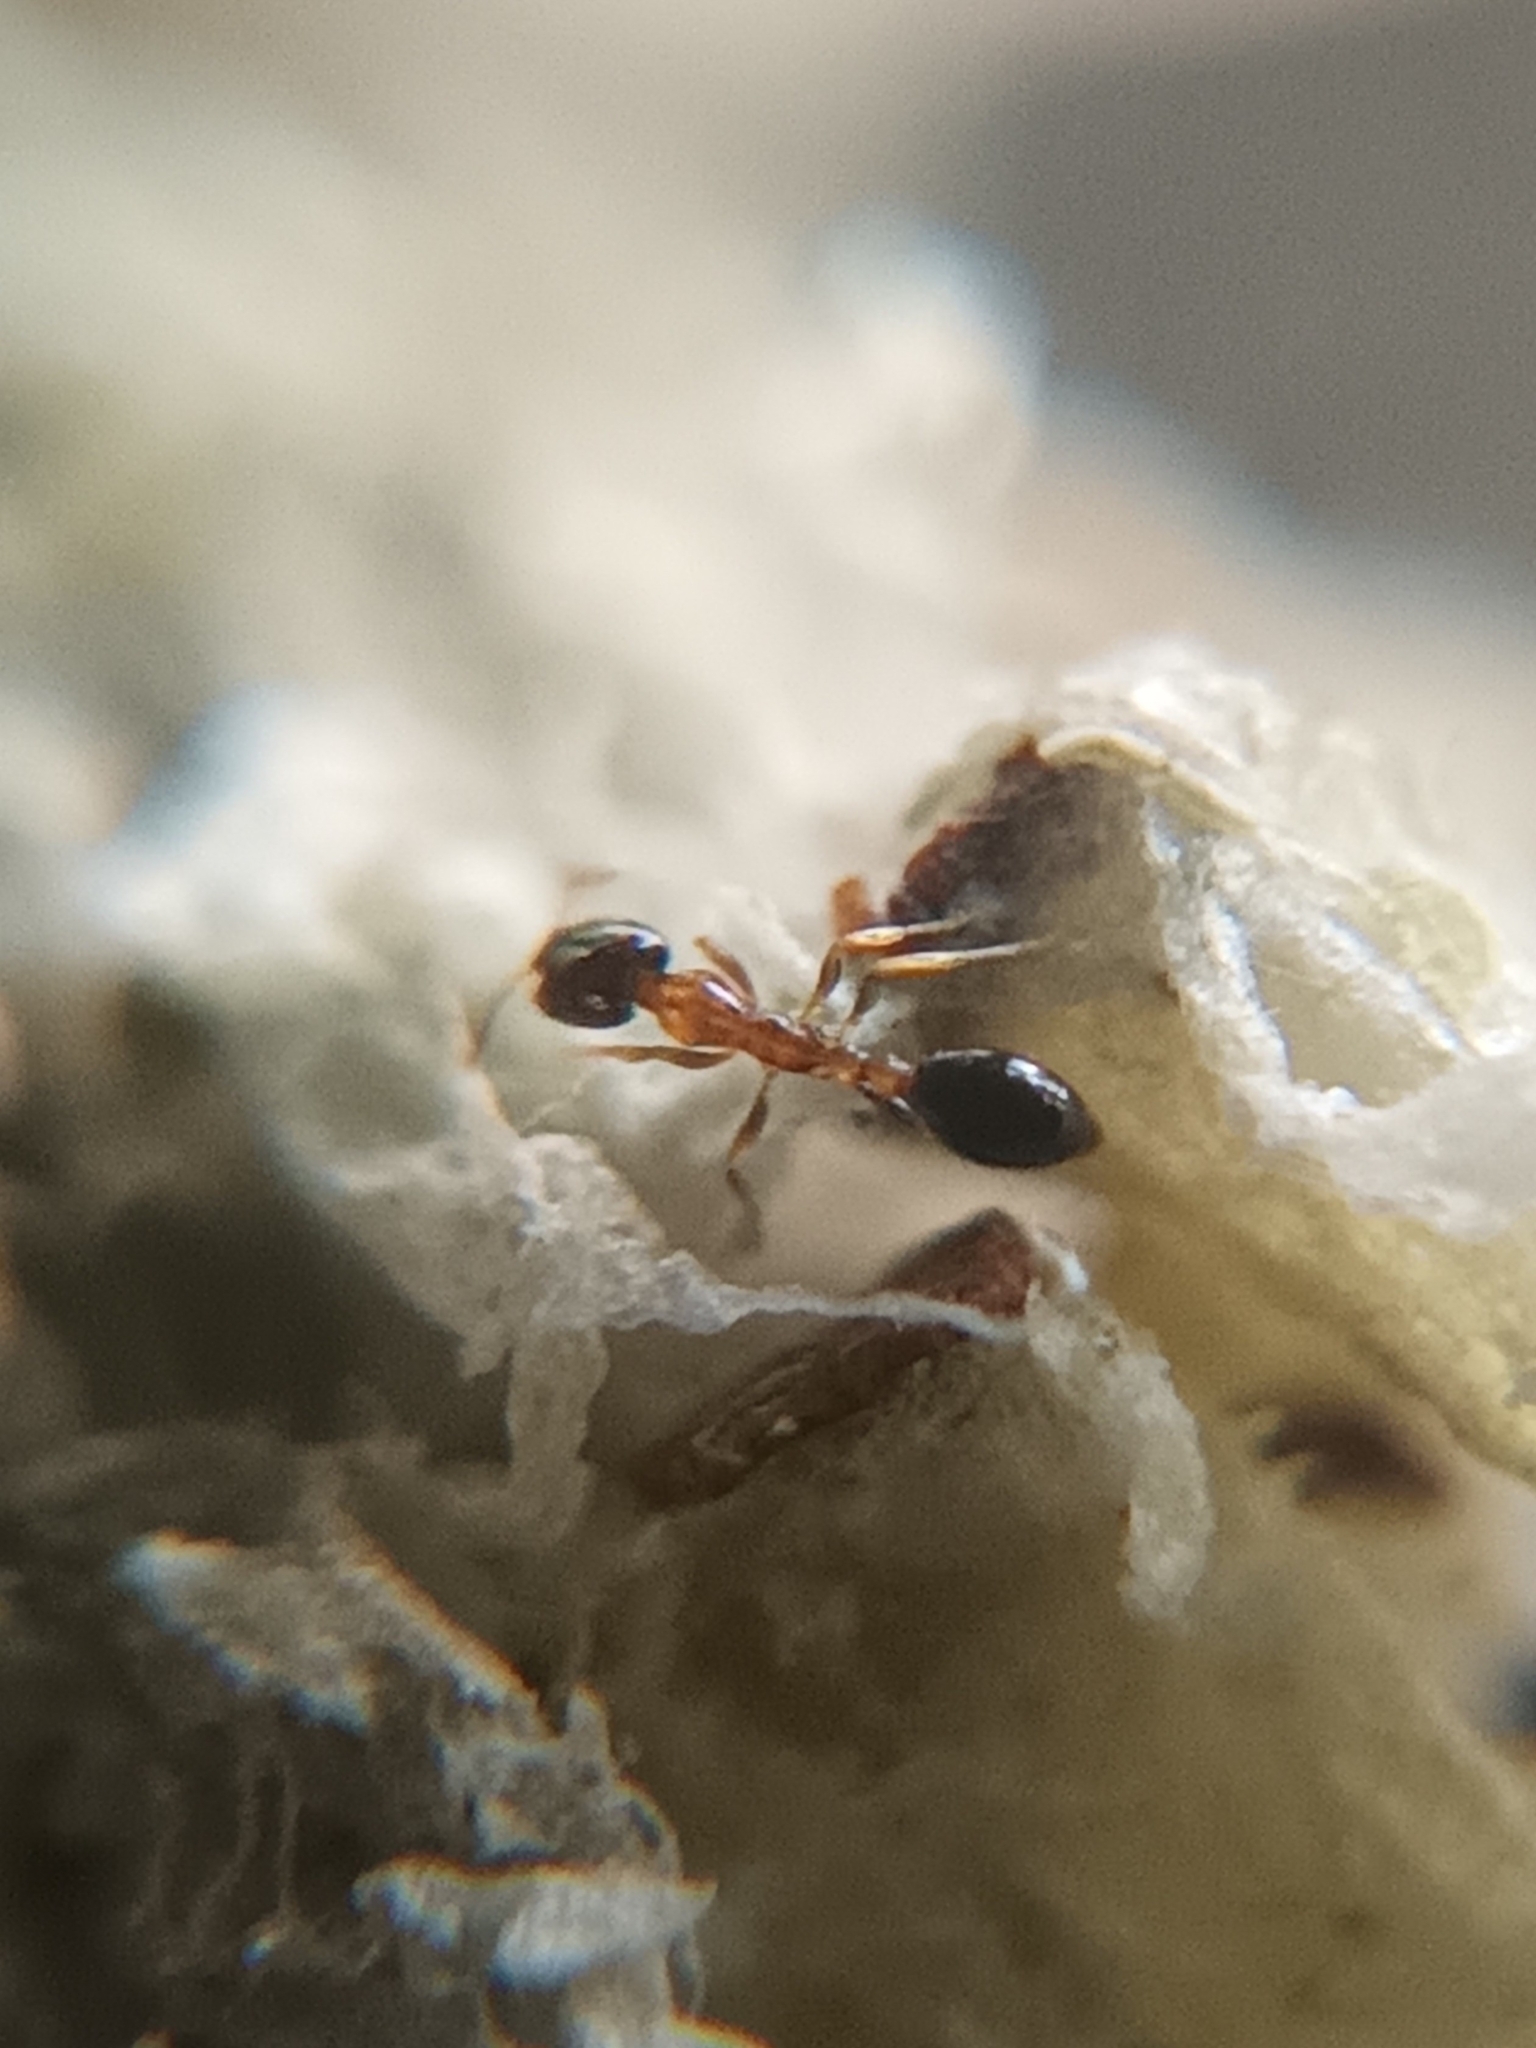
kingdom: Animalia
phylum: Arthropoda
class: Insecta
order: Hymenoptera
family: Formicidae
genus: Monomorium
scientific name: Monomorium floricola
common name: Bicolored trailing ant
